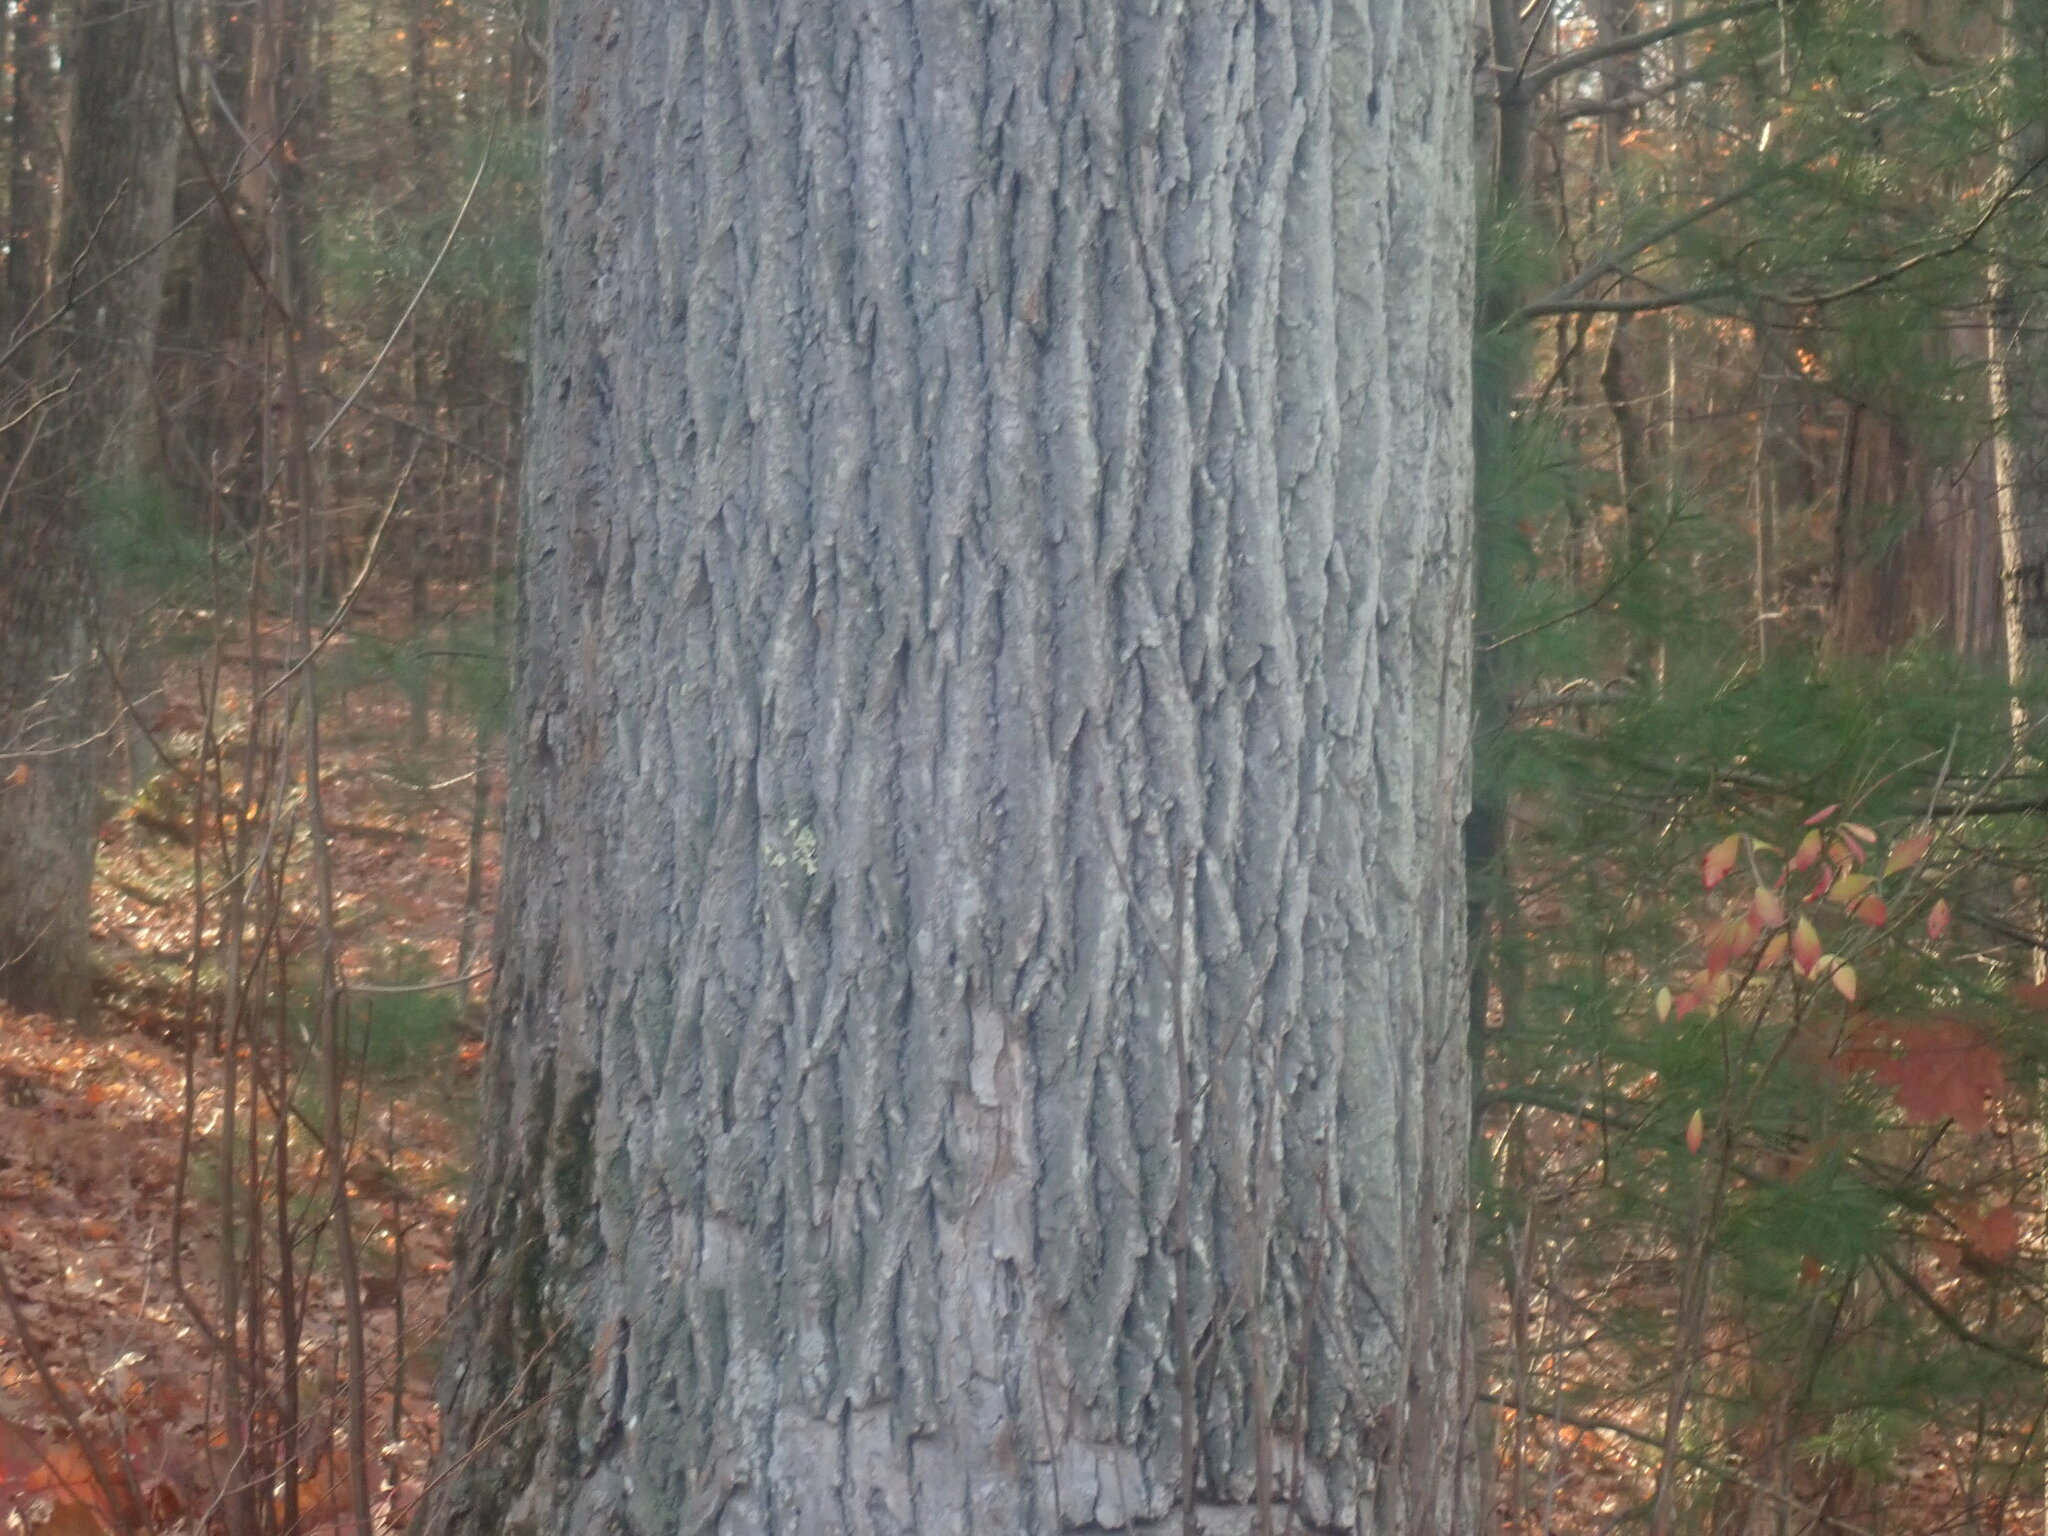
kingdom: Plantae
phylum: Tracheophyta
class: Magnoliopsida
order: Magnoliales
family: Magnoliaceae
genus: Liriodendron
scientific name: Liriodendron tulipifera
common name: Tulip tree
